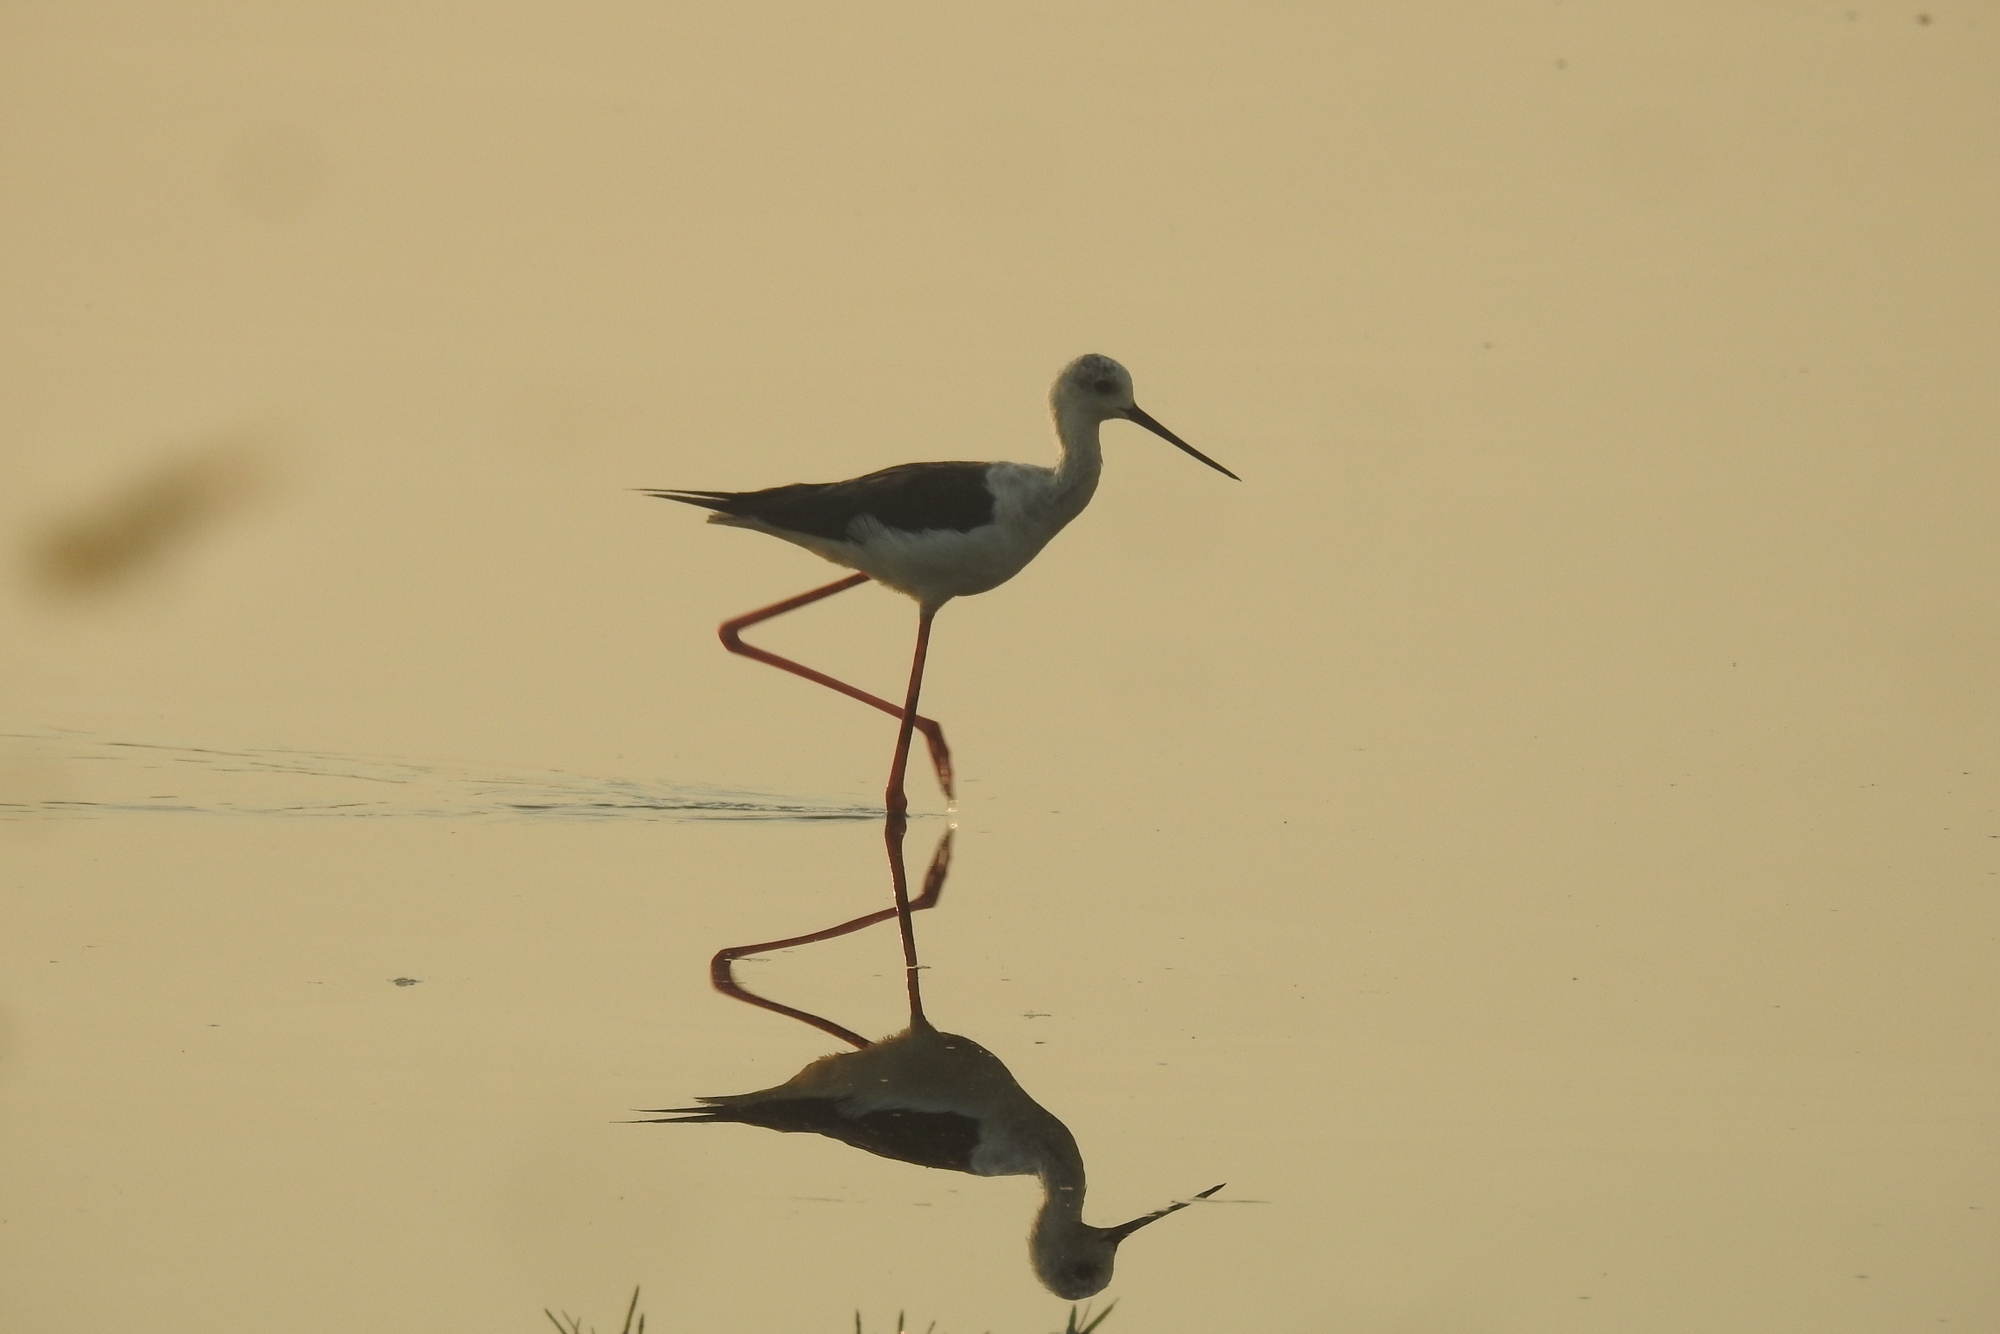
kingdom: Animalia
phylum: Chordata
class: Aves
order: Charadriiformes
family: Recurvirostridae
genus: Himantopus
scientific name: Himantopus himantopus
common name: Black-winged stilt
